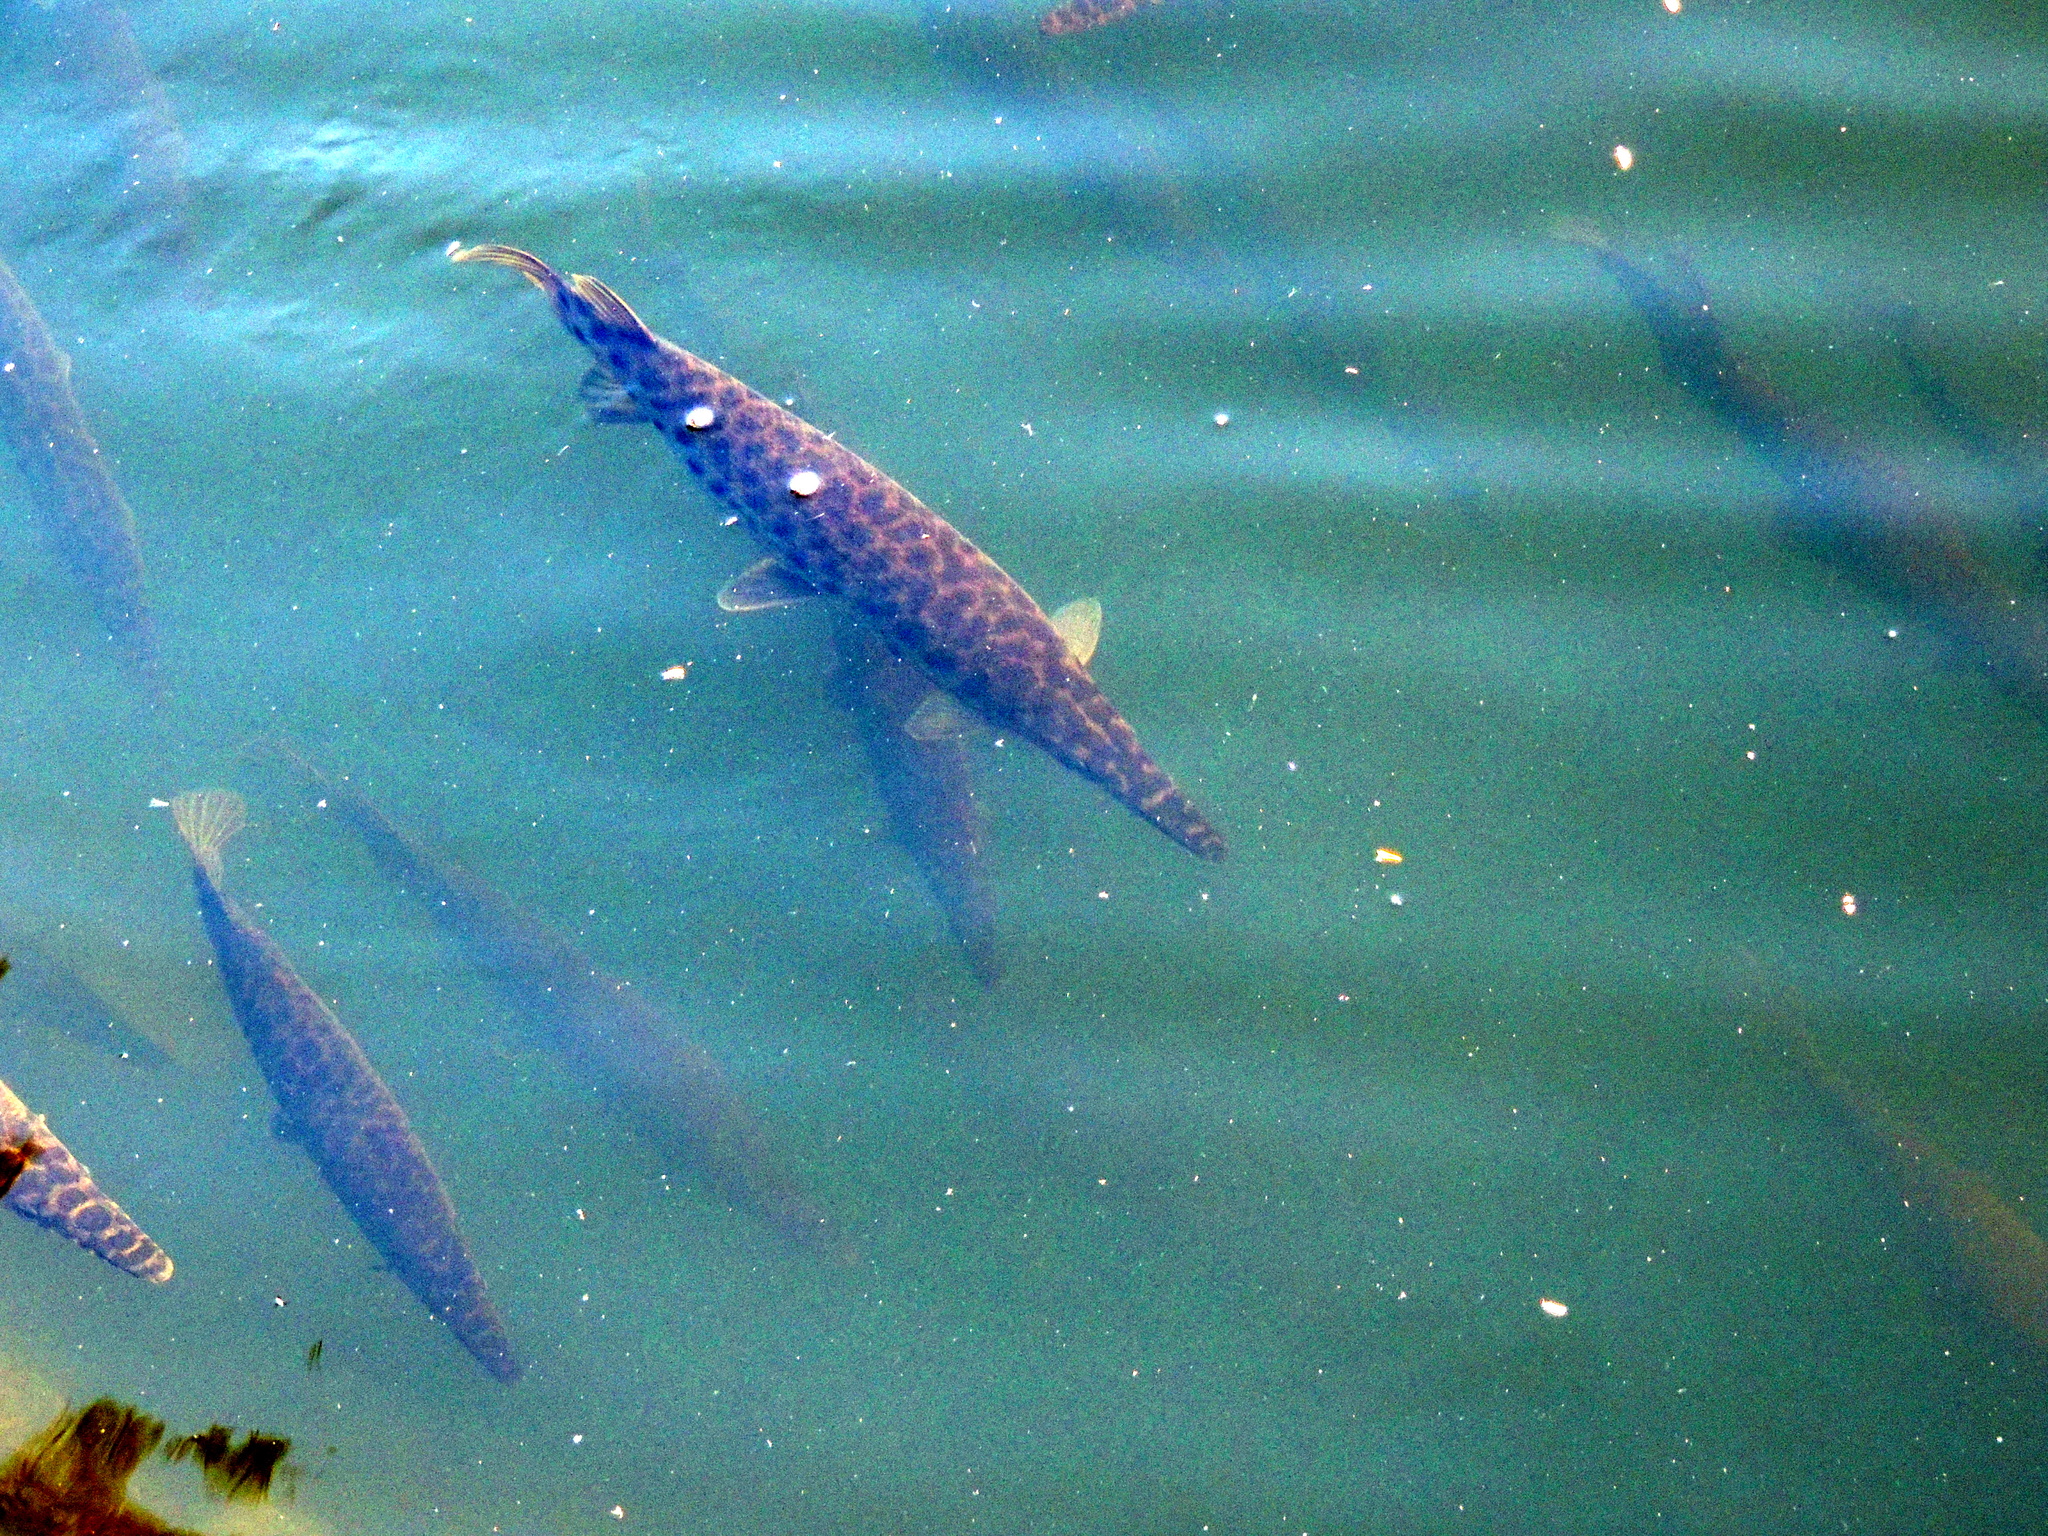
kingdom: Animalia
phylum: Chordata
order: Lepisosteiformes
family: Lepisosteidae
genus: Lepisosteus
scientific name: Lepisosteus platyrhincus
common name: Florida gar
